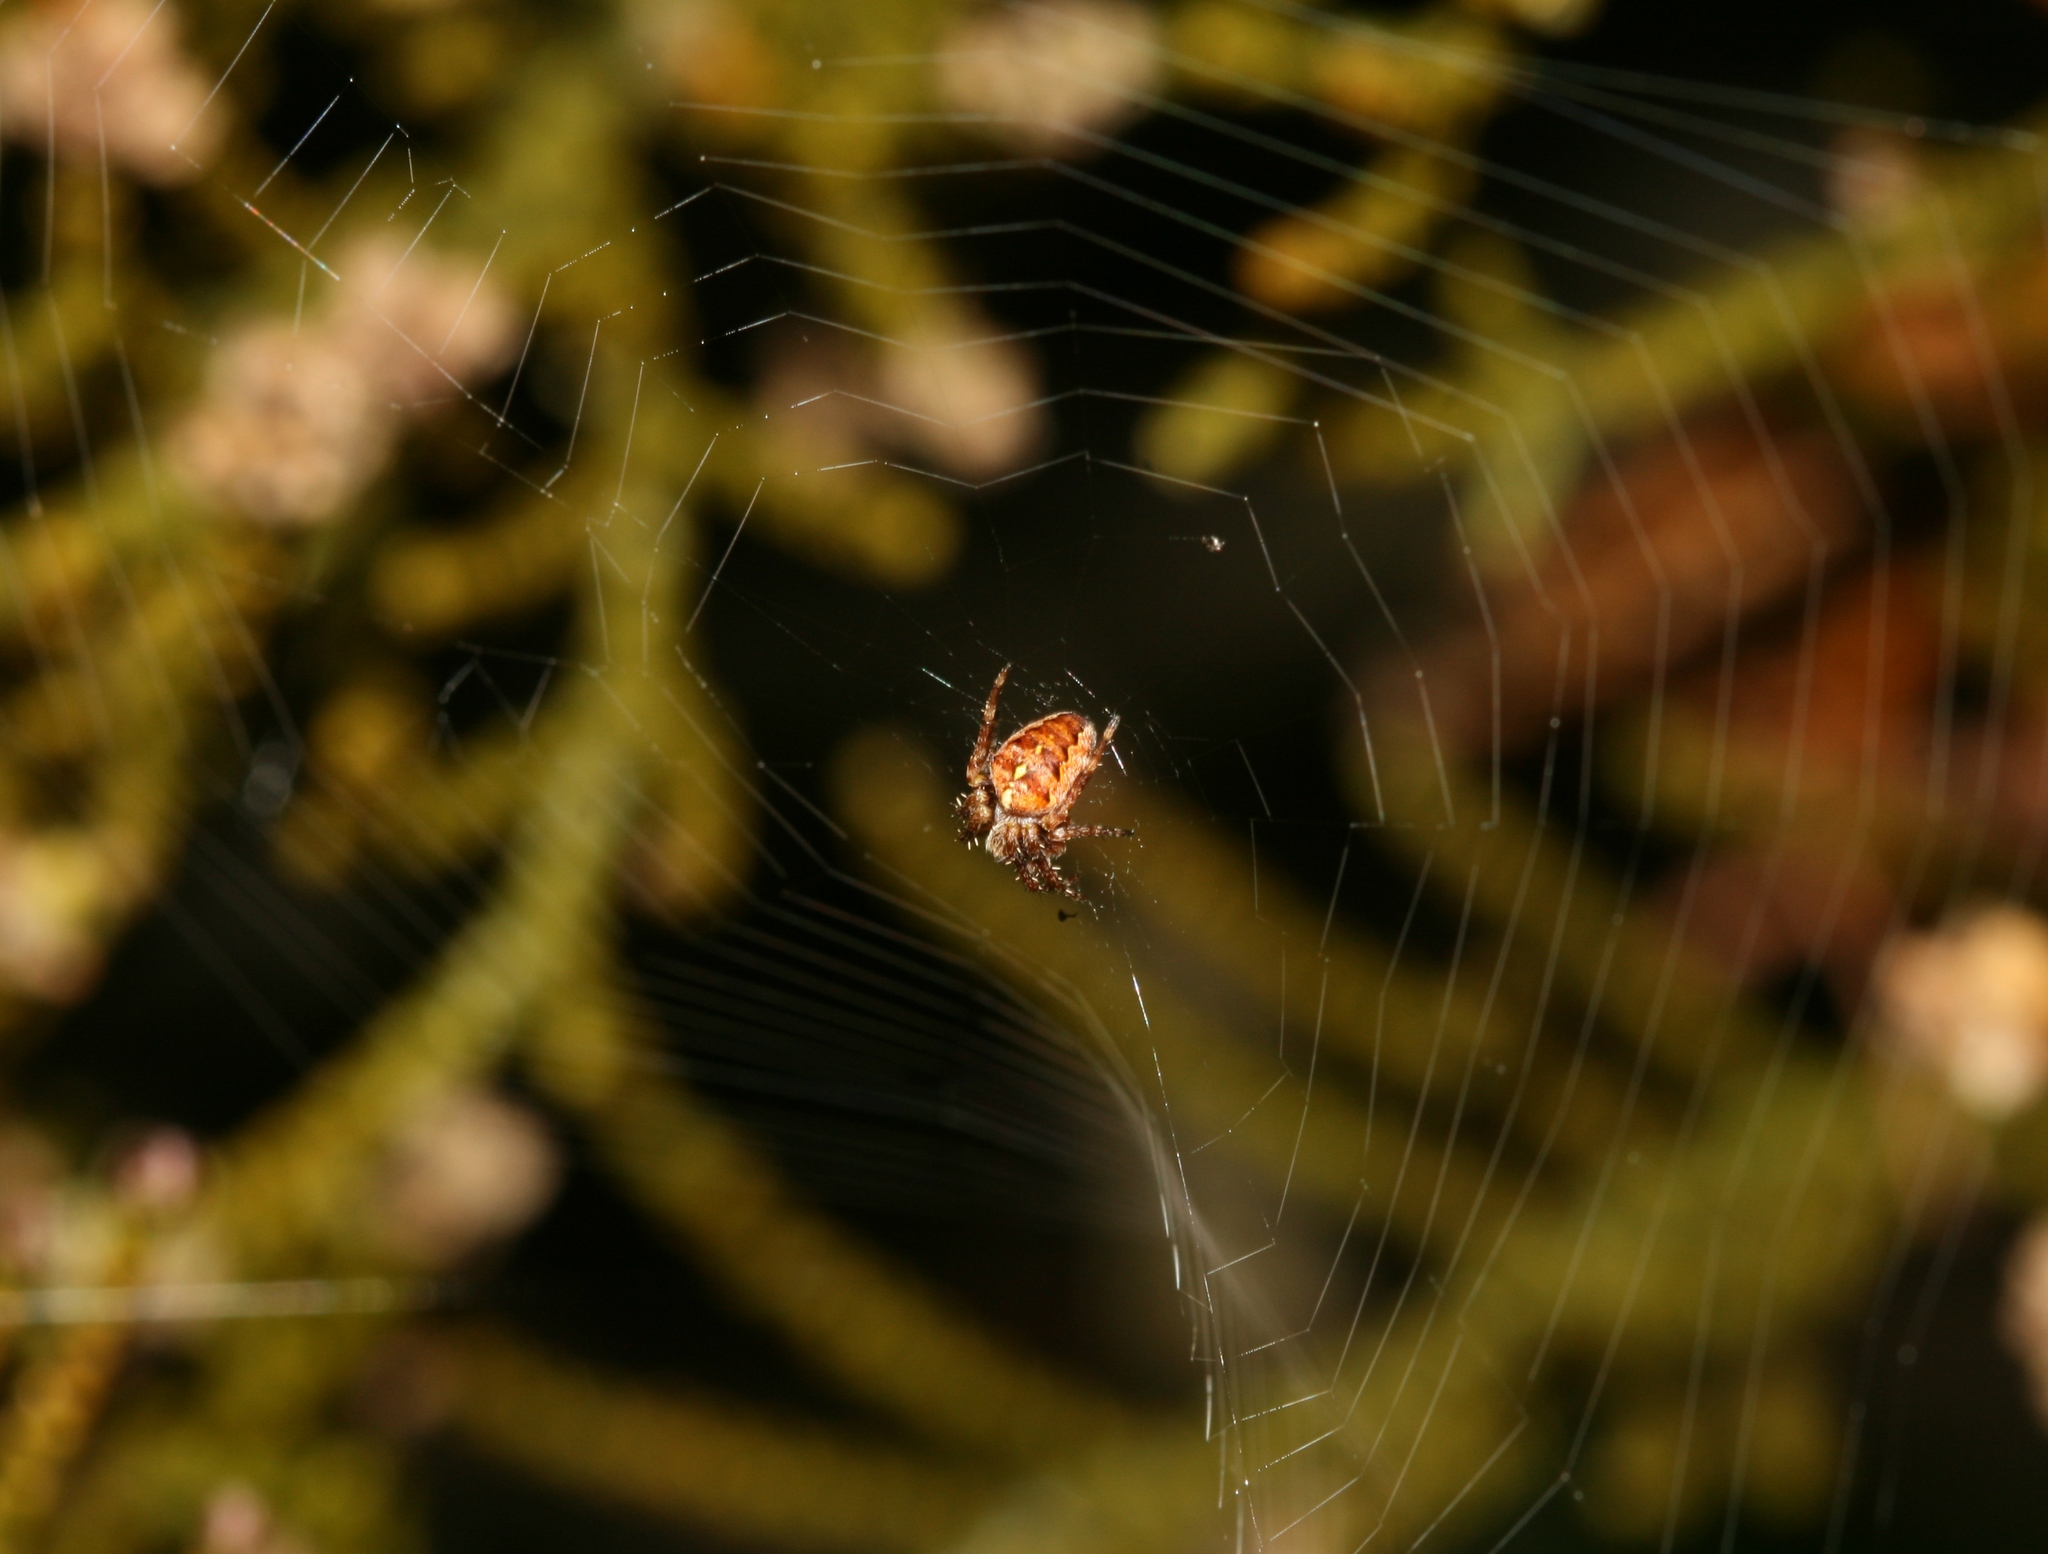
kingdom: Animalia
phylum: Arthropoda
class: Arachnida
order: Araneae
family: Araneidae
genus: Araneus
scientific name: Araneus diadematus
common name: Cross orbweaver
